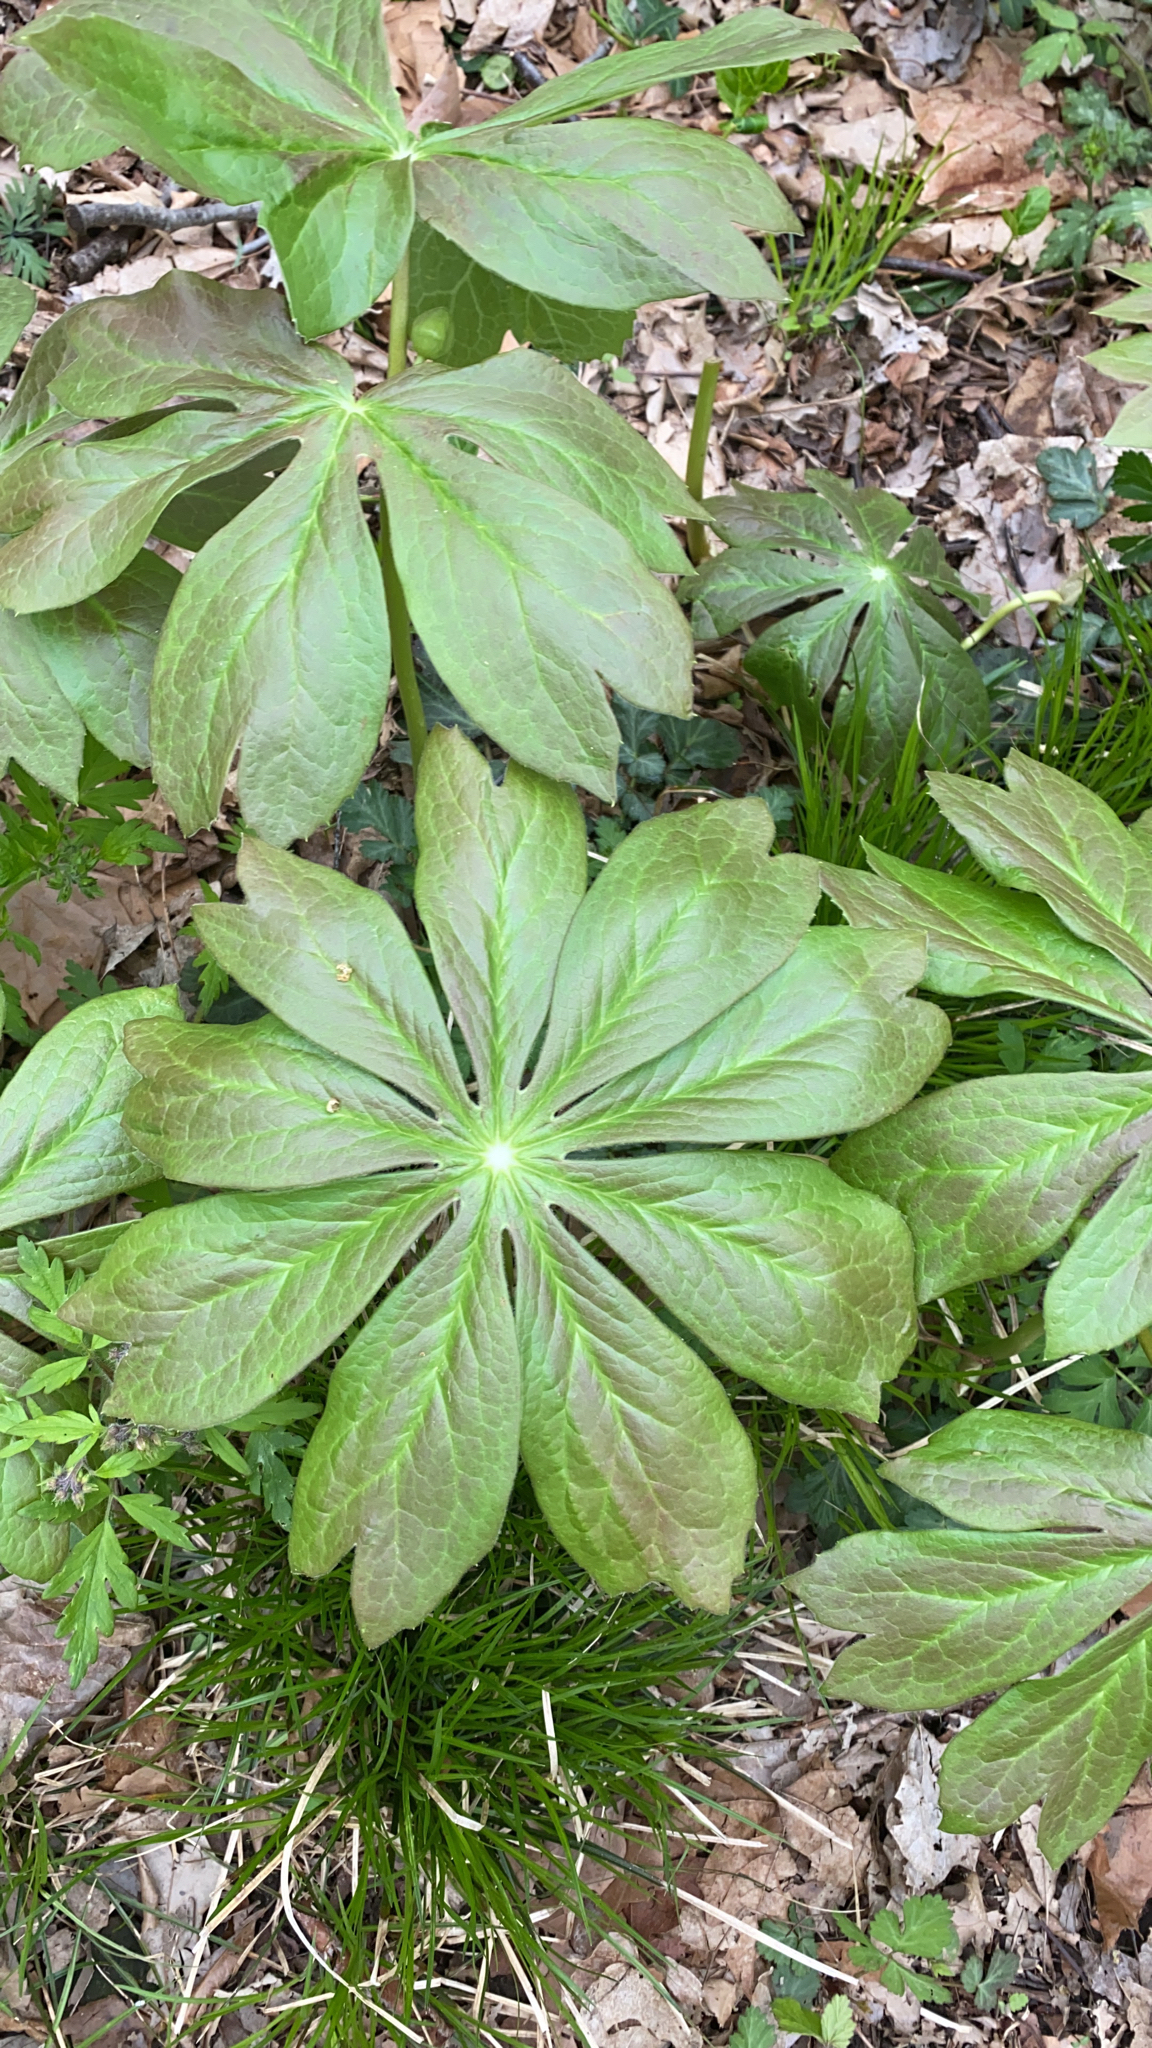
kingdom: Plantae
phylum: Tracheophyta
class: Magnoliopsida
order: Ranunculales
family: Berberidaceae
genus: Podophyllum
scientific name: Podophyllum peltatum
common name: Wild mandrake
